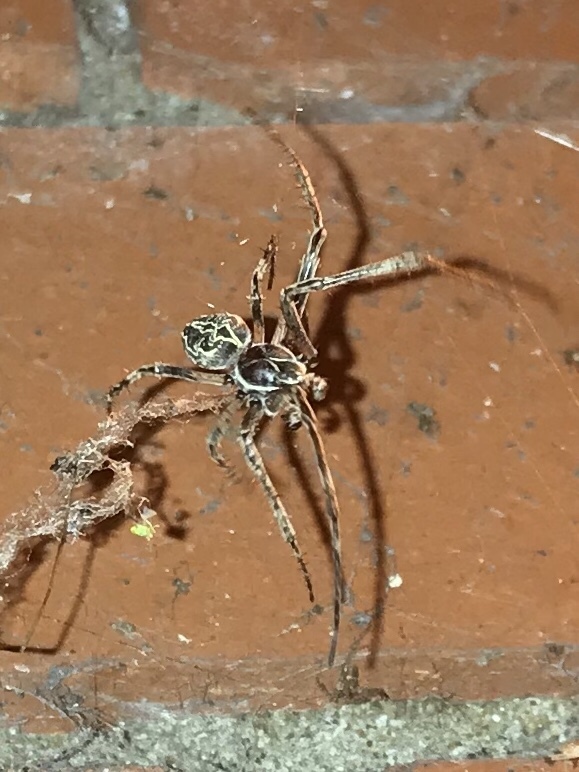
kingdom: Animalia
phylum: Arthropoda
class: Arachnida
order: Araneae
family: Araneidae
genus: Larinioides
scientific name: Larinioides sclopetarius
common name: Bridge orbweaver
